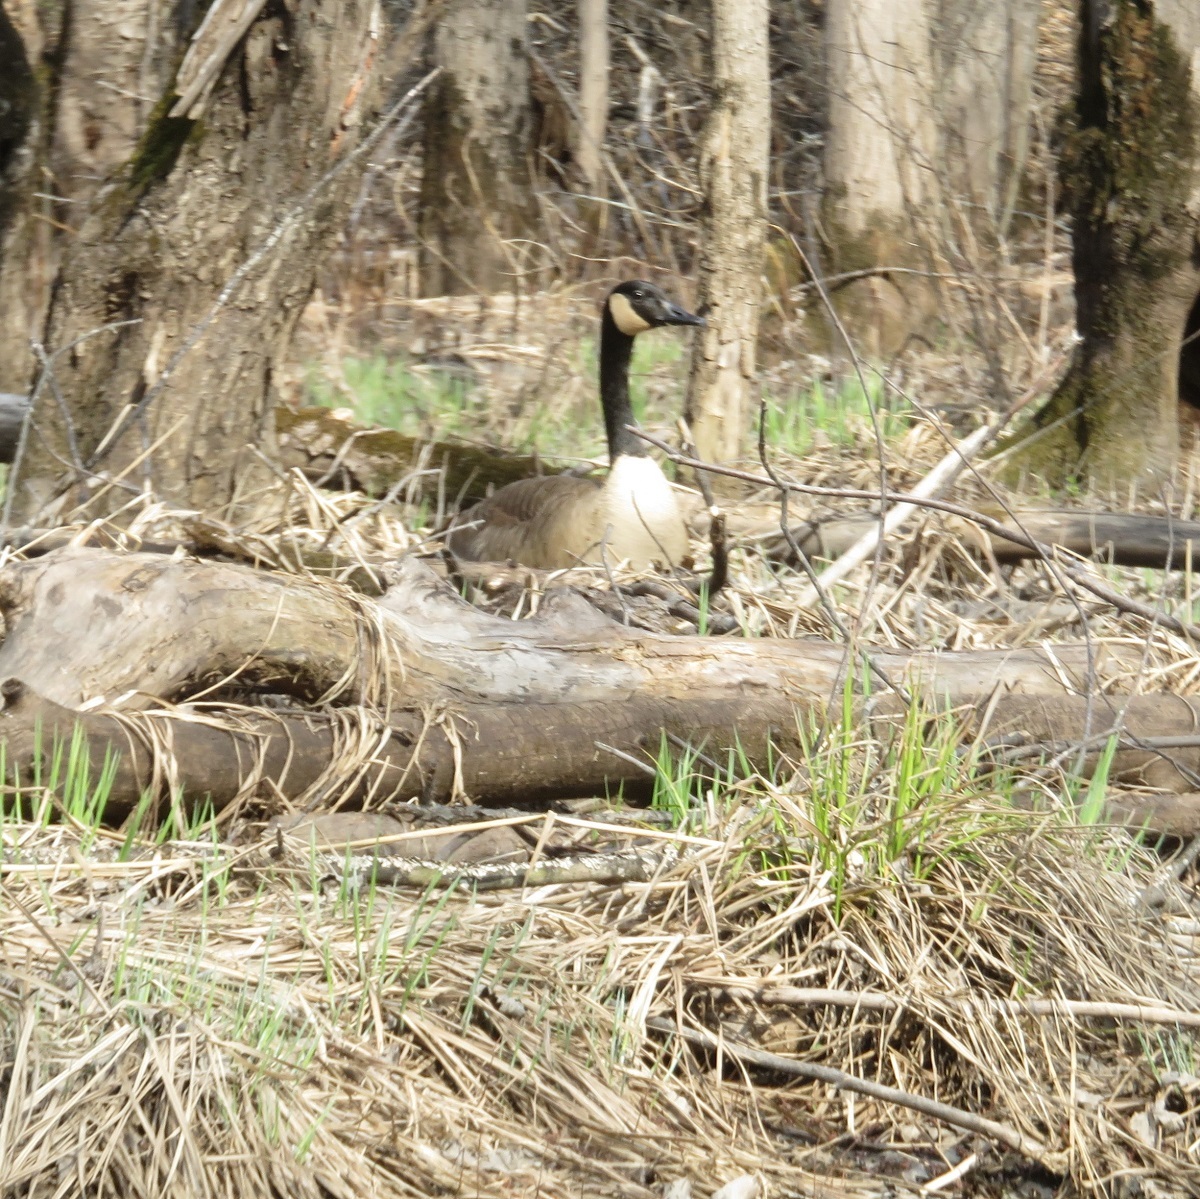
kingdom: Animalia
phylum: Chordata
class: Aves
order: Anseriformes
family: Anatidae
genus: Branta
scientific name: Branta canadensis
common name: Canada goose
